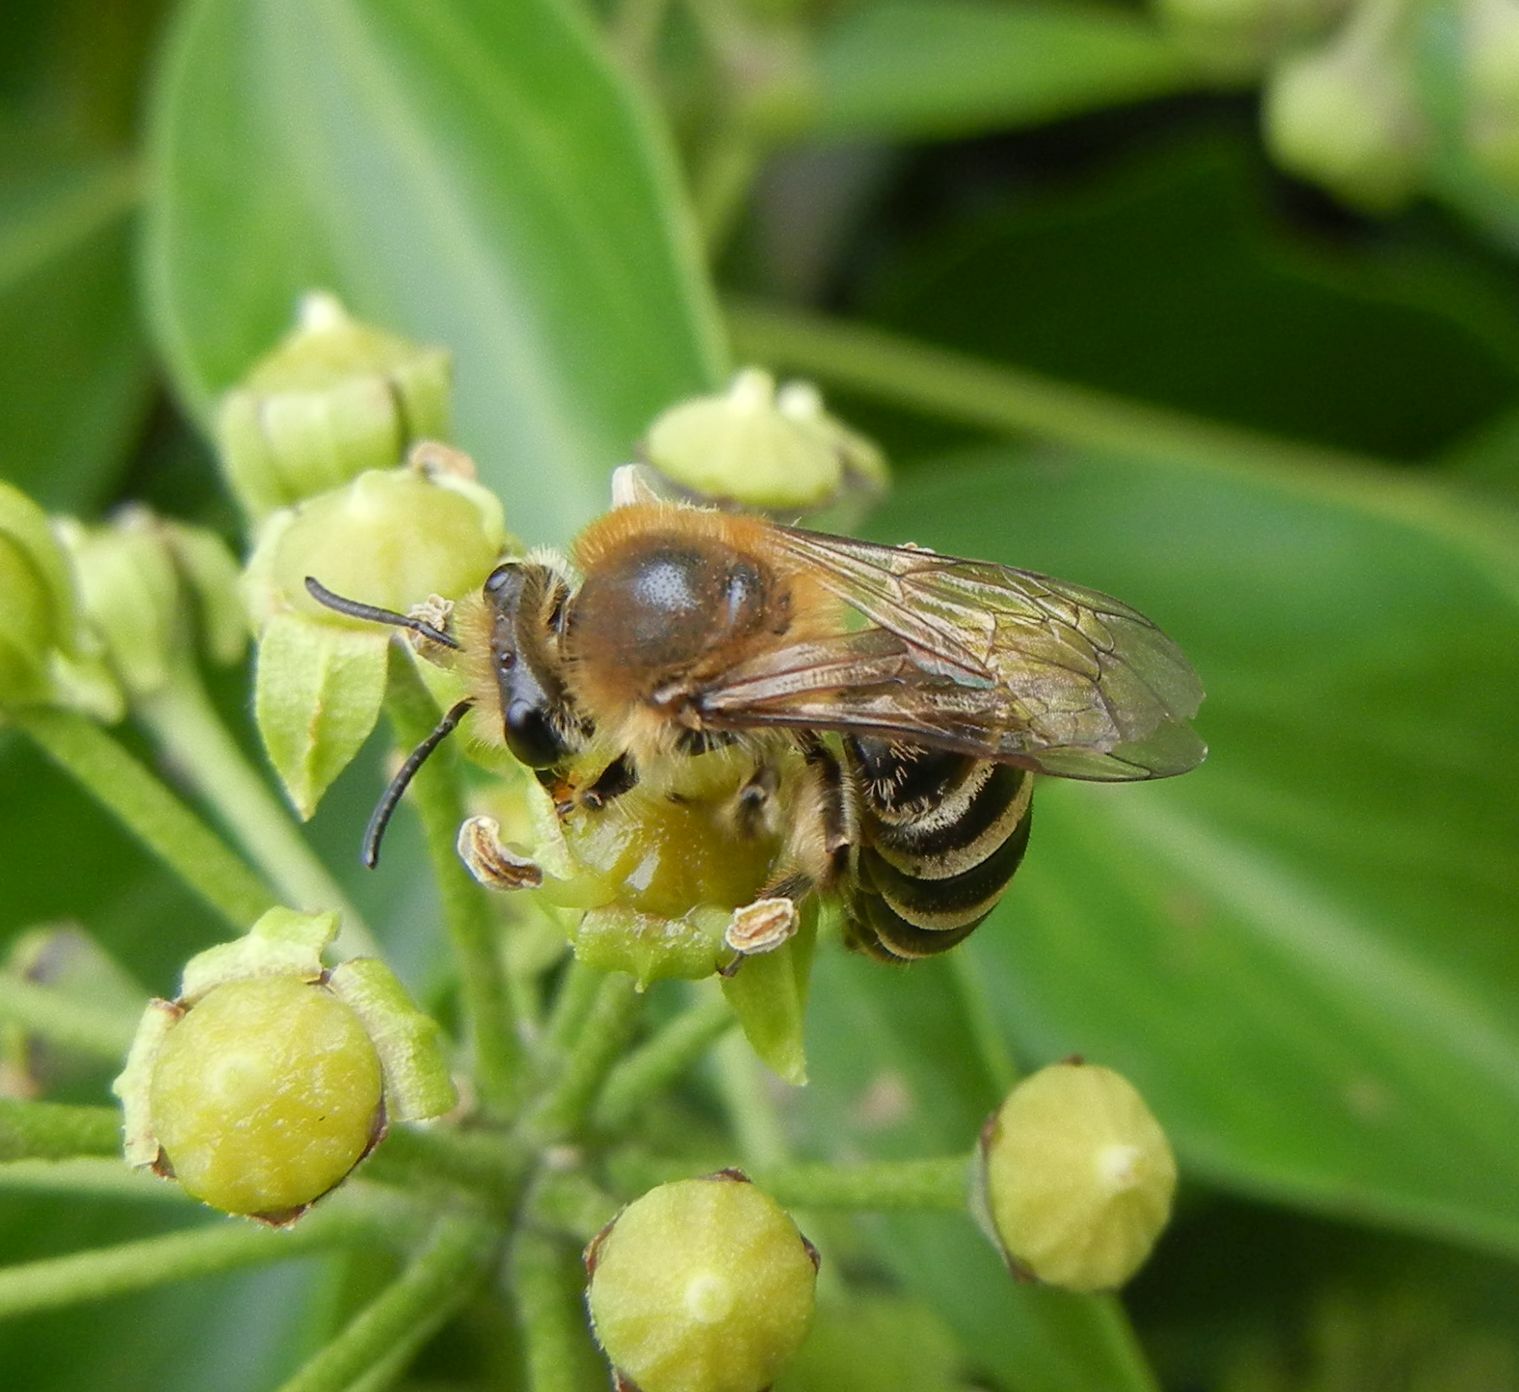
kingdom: Animalia
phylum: Arthropoda
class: Insecta
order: Hymenoptera
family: Colletidae
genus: Colletes
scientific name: Colletes hederae
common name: Ivy bee
